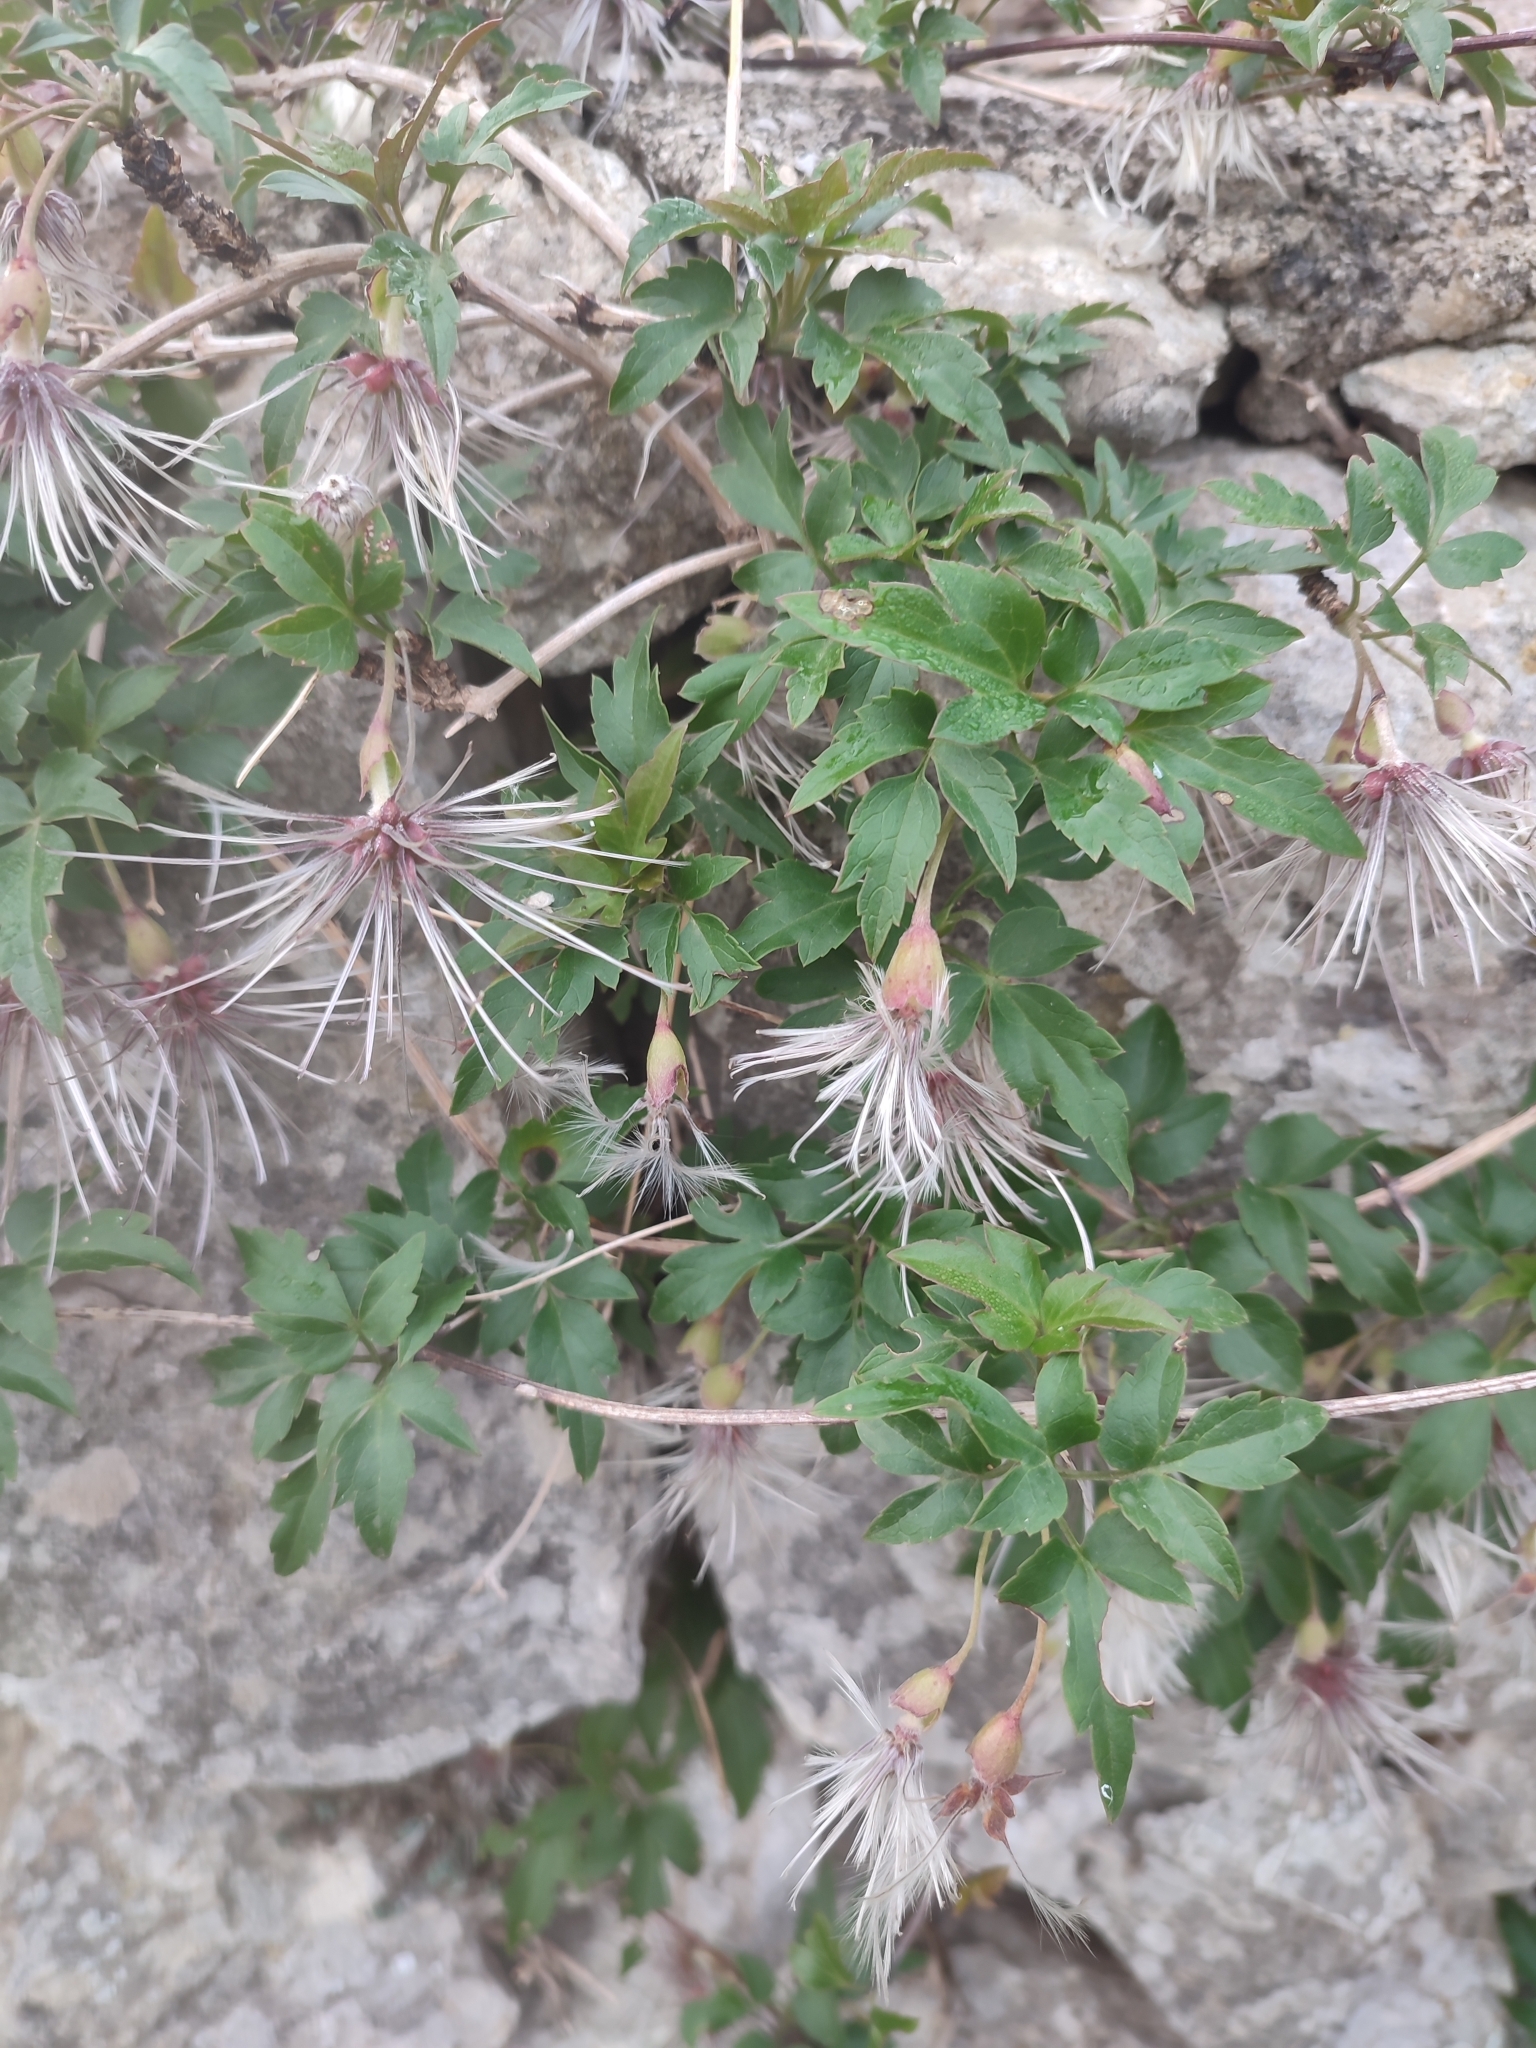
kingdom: Plantae
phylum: Tracheophyta
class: Magnoliopsida
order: Ranunculales
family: Ranunculaceae
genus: Clematis
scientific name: Clematis cirrhosa
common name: Early virgin's-bower
